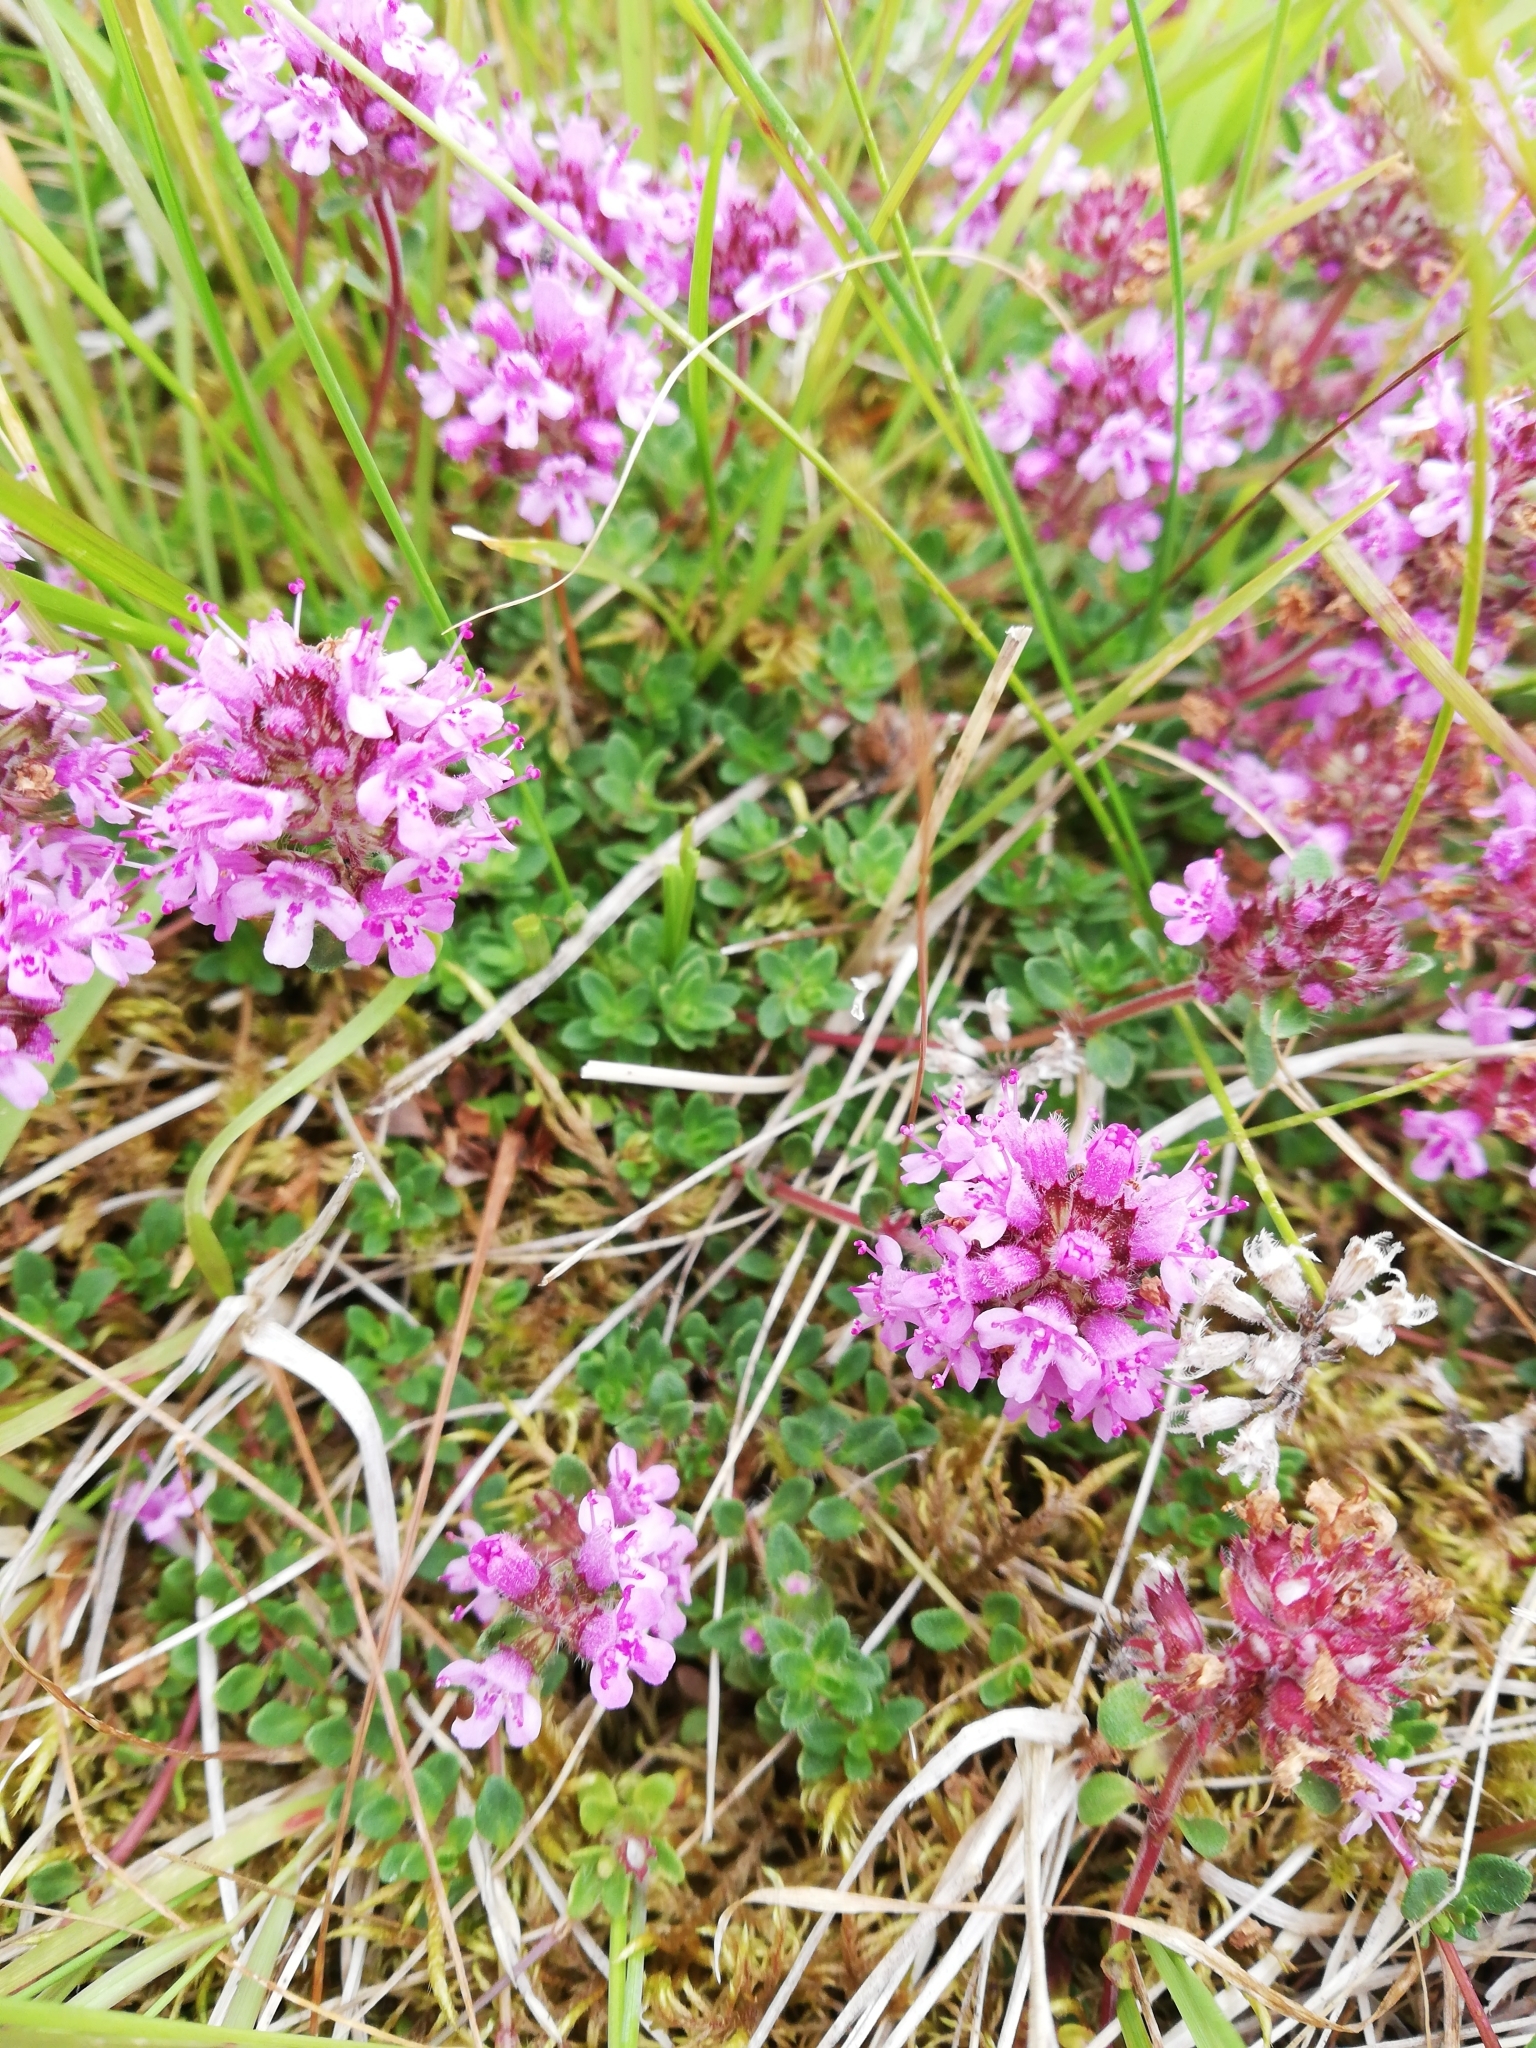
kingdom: Plantae
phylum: Tracheophyta
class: Magnoliopsida
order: Lamiales
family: Lamiaceae
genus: Thymus
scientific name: Thymus praecox
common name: Wild thyme
